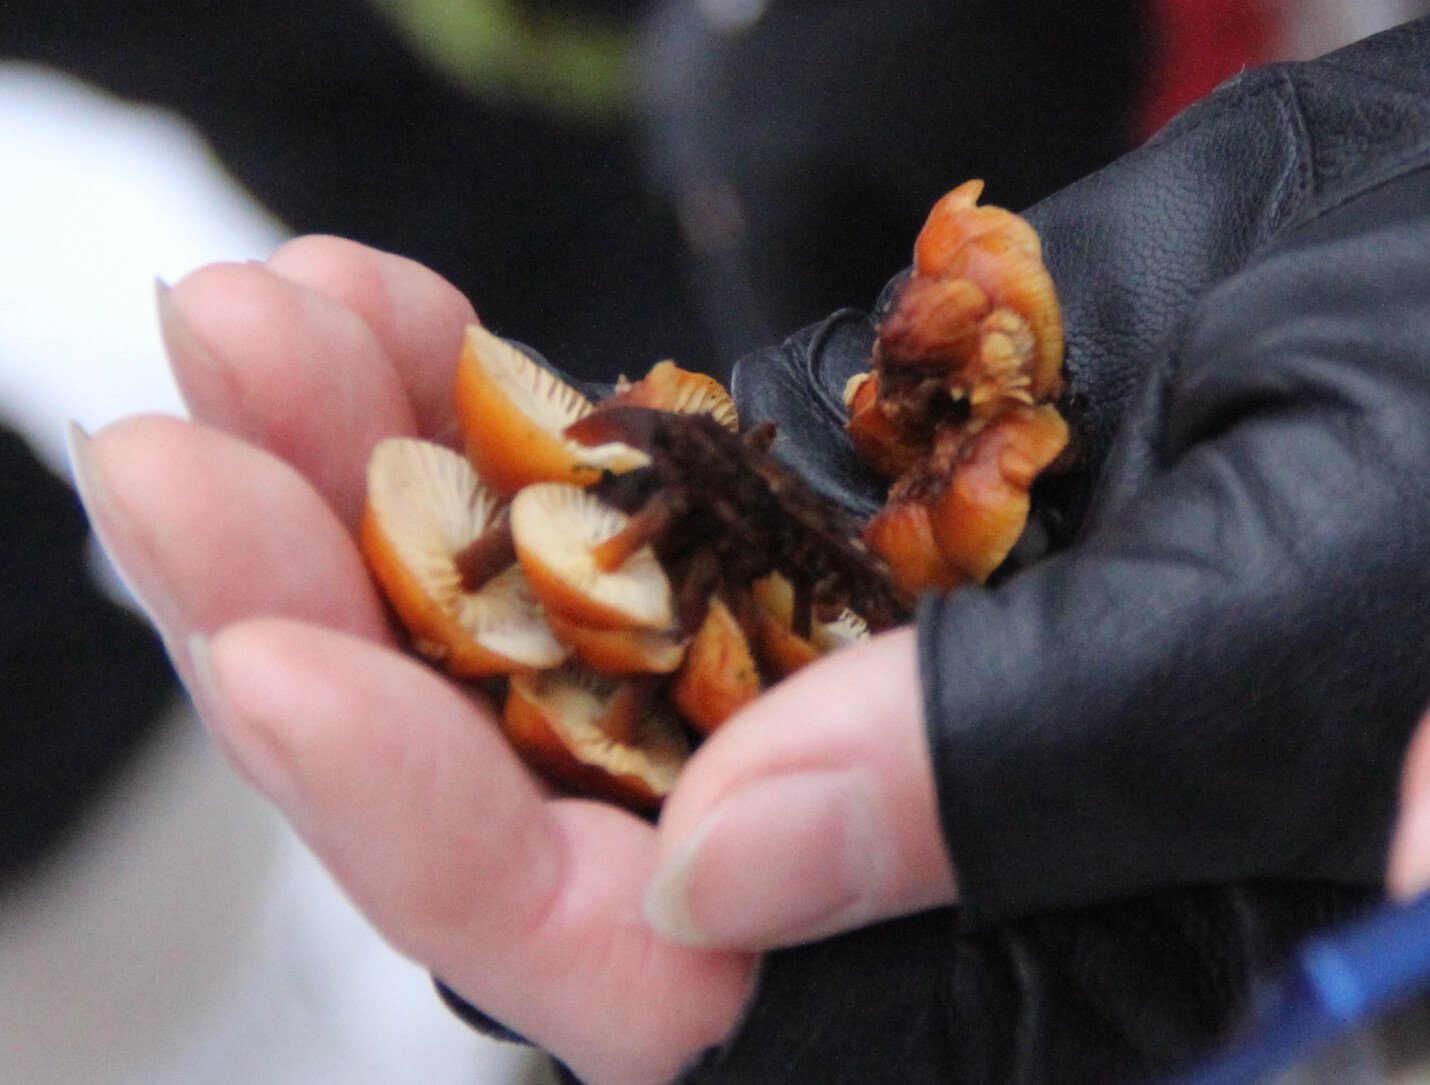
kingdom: Fungi
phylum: Basidiomycota
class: Agaricomycetes
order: Agaricales
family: Physalacriaceae
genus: Flammulina
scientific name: Flammulina
